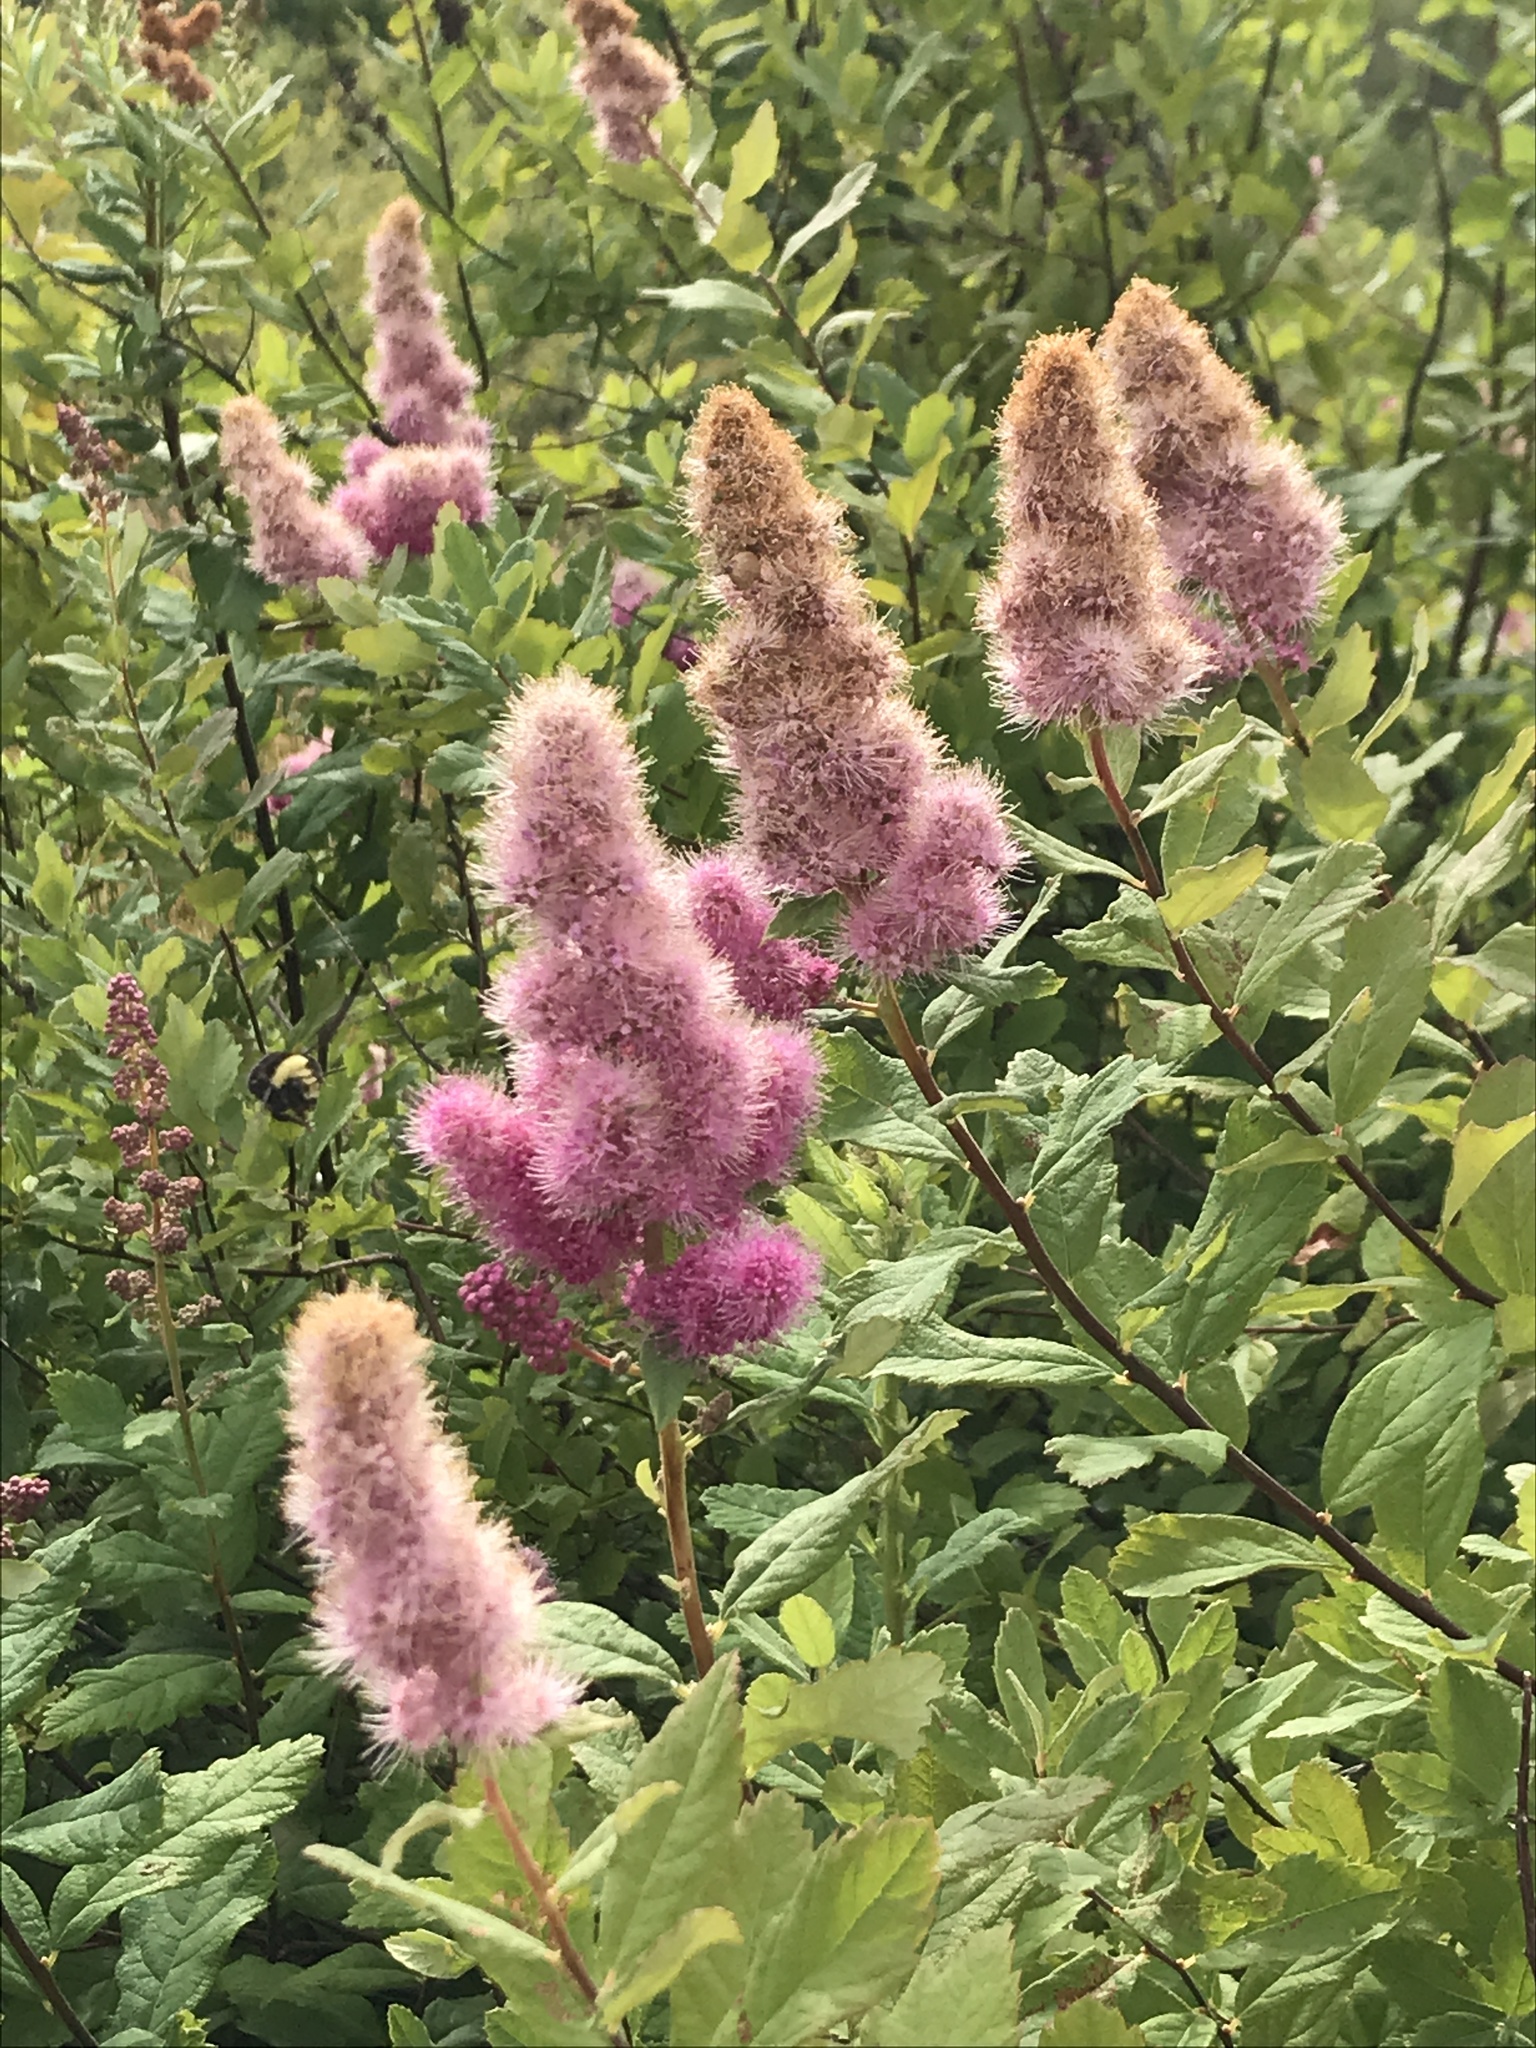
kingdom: Plantae
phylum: Tracheophyta
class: Magnoliopsida
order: Rosales
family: Rosaceae
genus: Spiraea
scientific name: Spiraea douglasii
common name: Steeplebush
